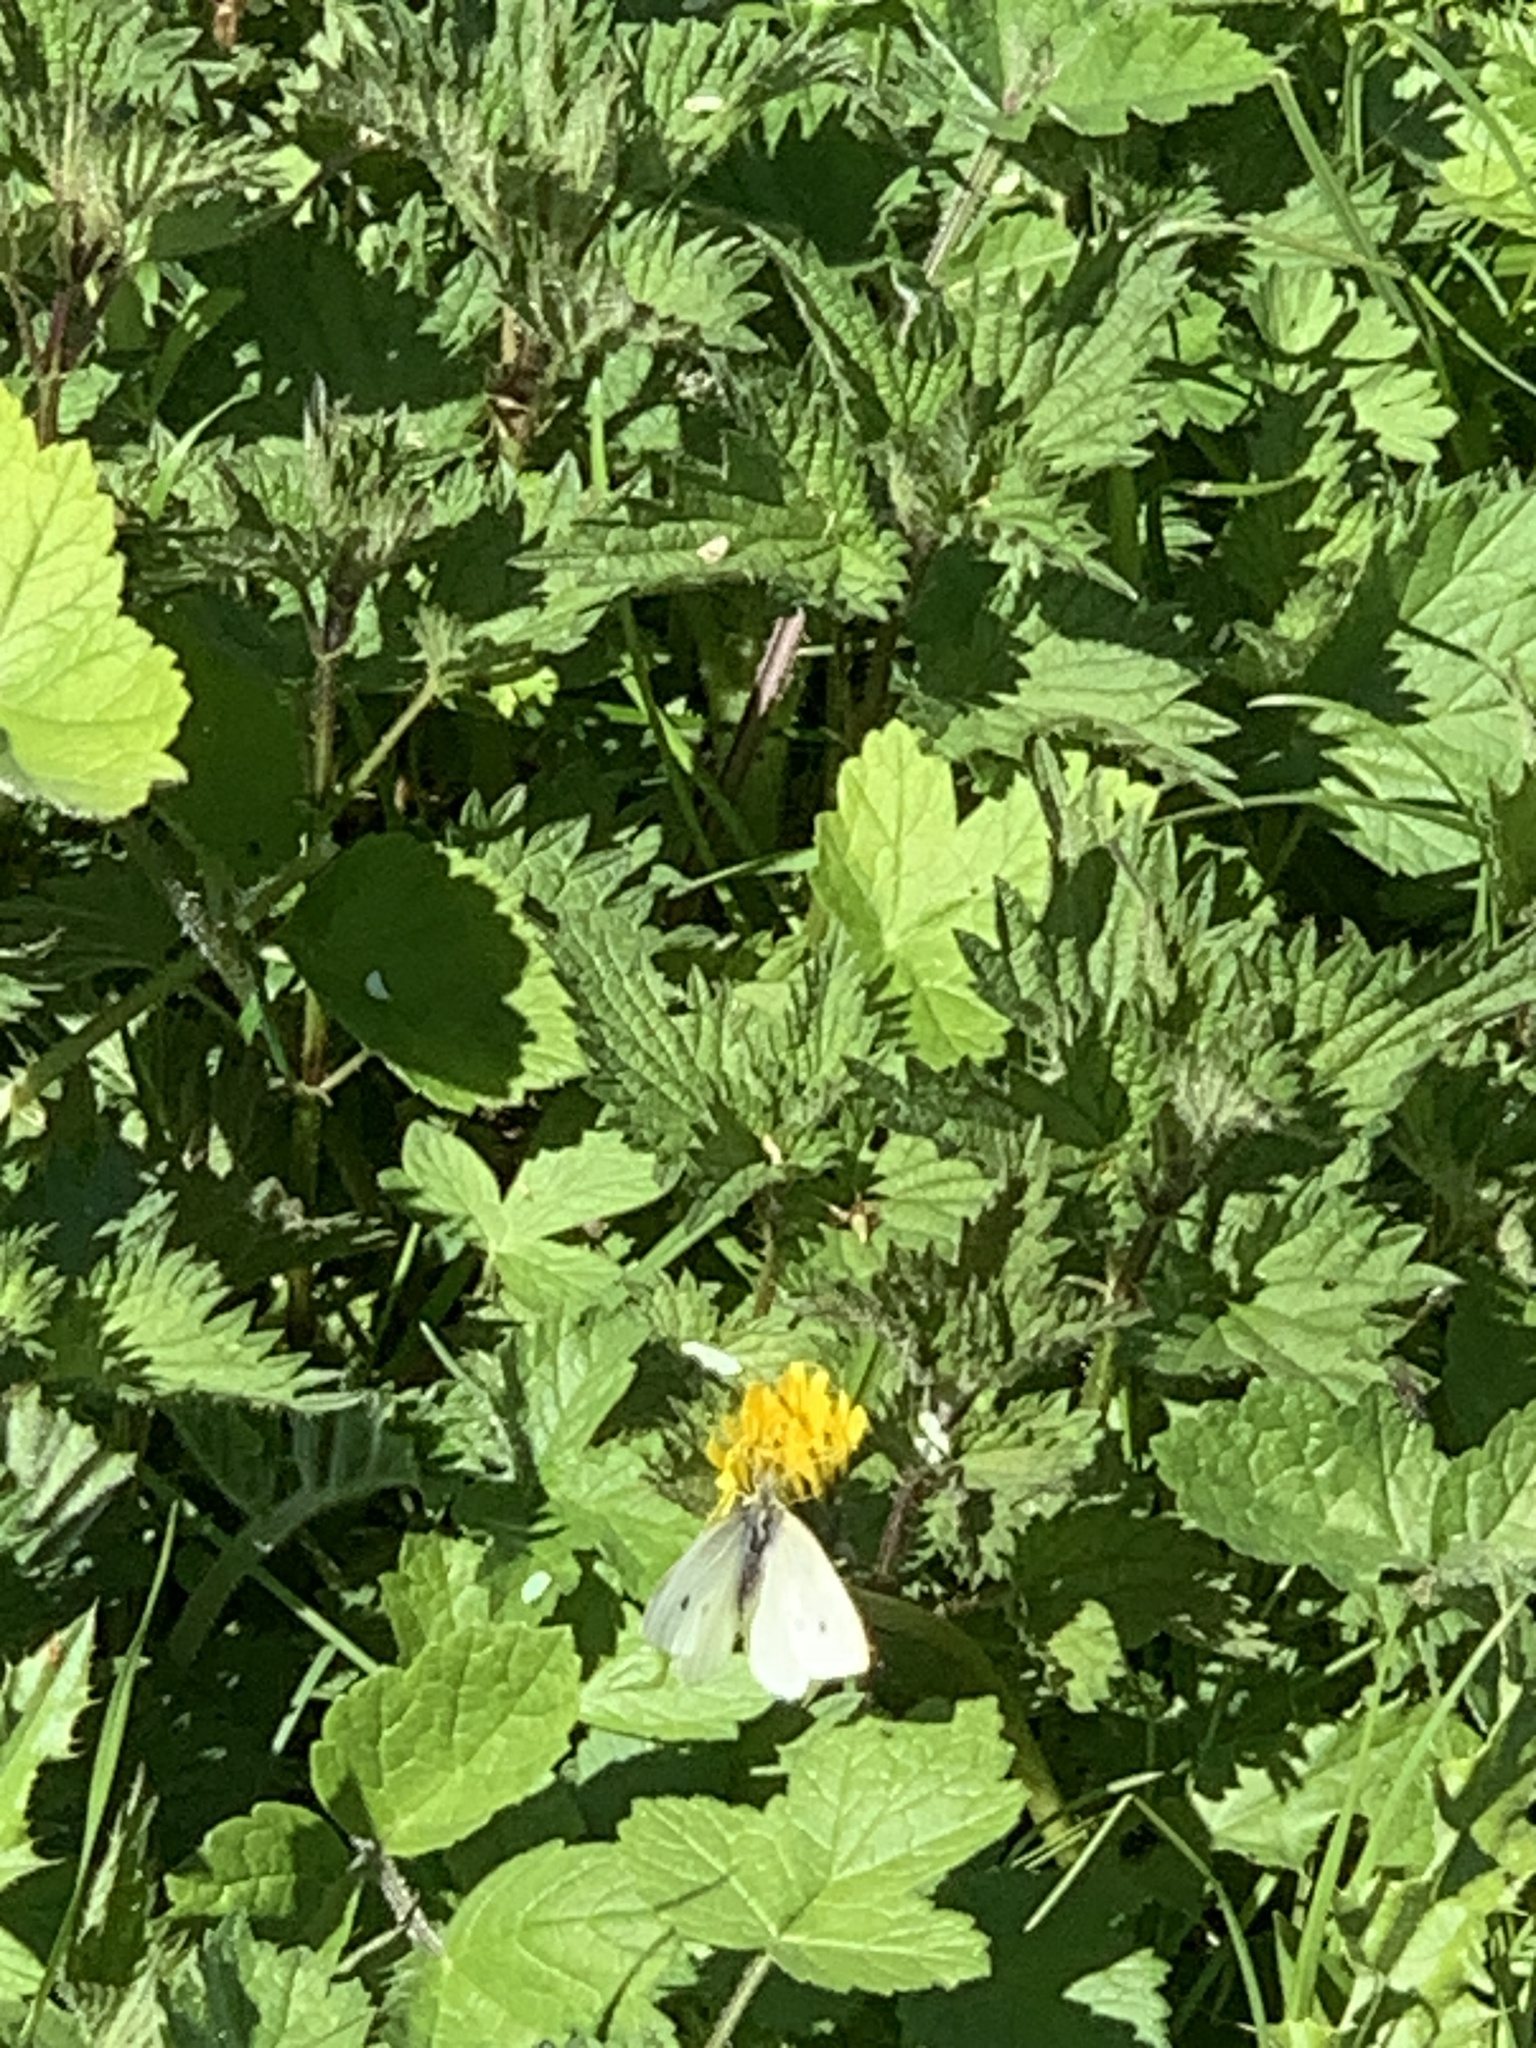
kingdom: Animalia
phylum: Arthropoda
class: Insecta
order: Lepidoptera
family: Pieridae
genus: Pieris
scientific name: Pieris rapae
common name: Small white
